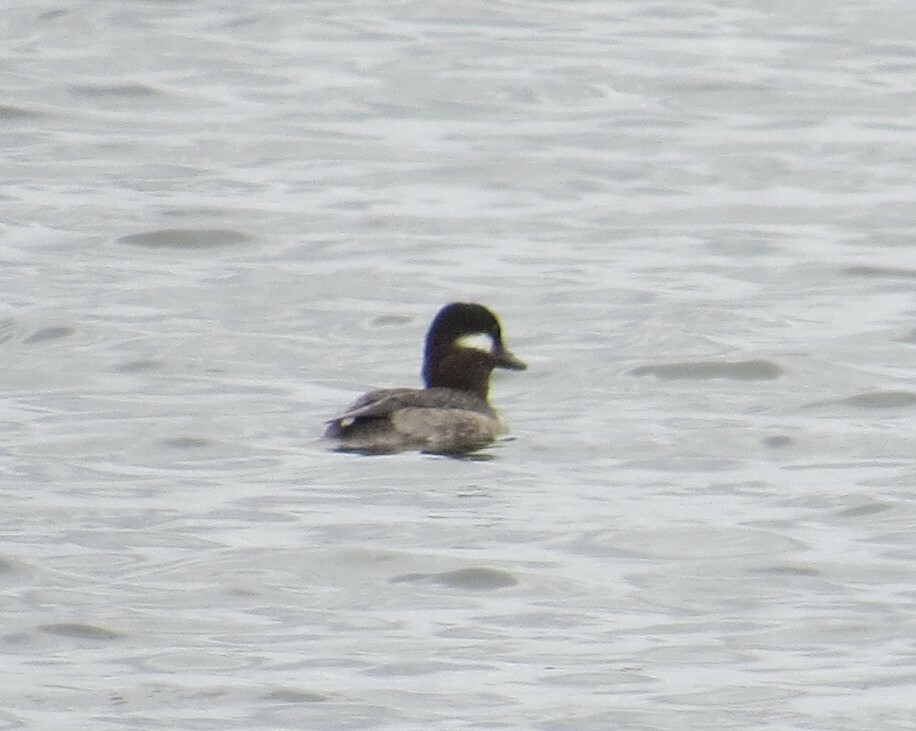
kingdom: Animalia
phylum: Chordata
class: Aves
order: Anseriformes
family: Anatidae
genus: Bucephala
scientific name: Bucephala albeola
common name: Bufflehead
